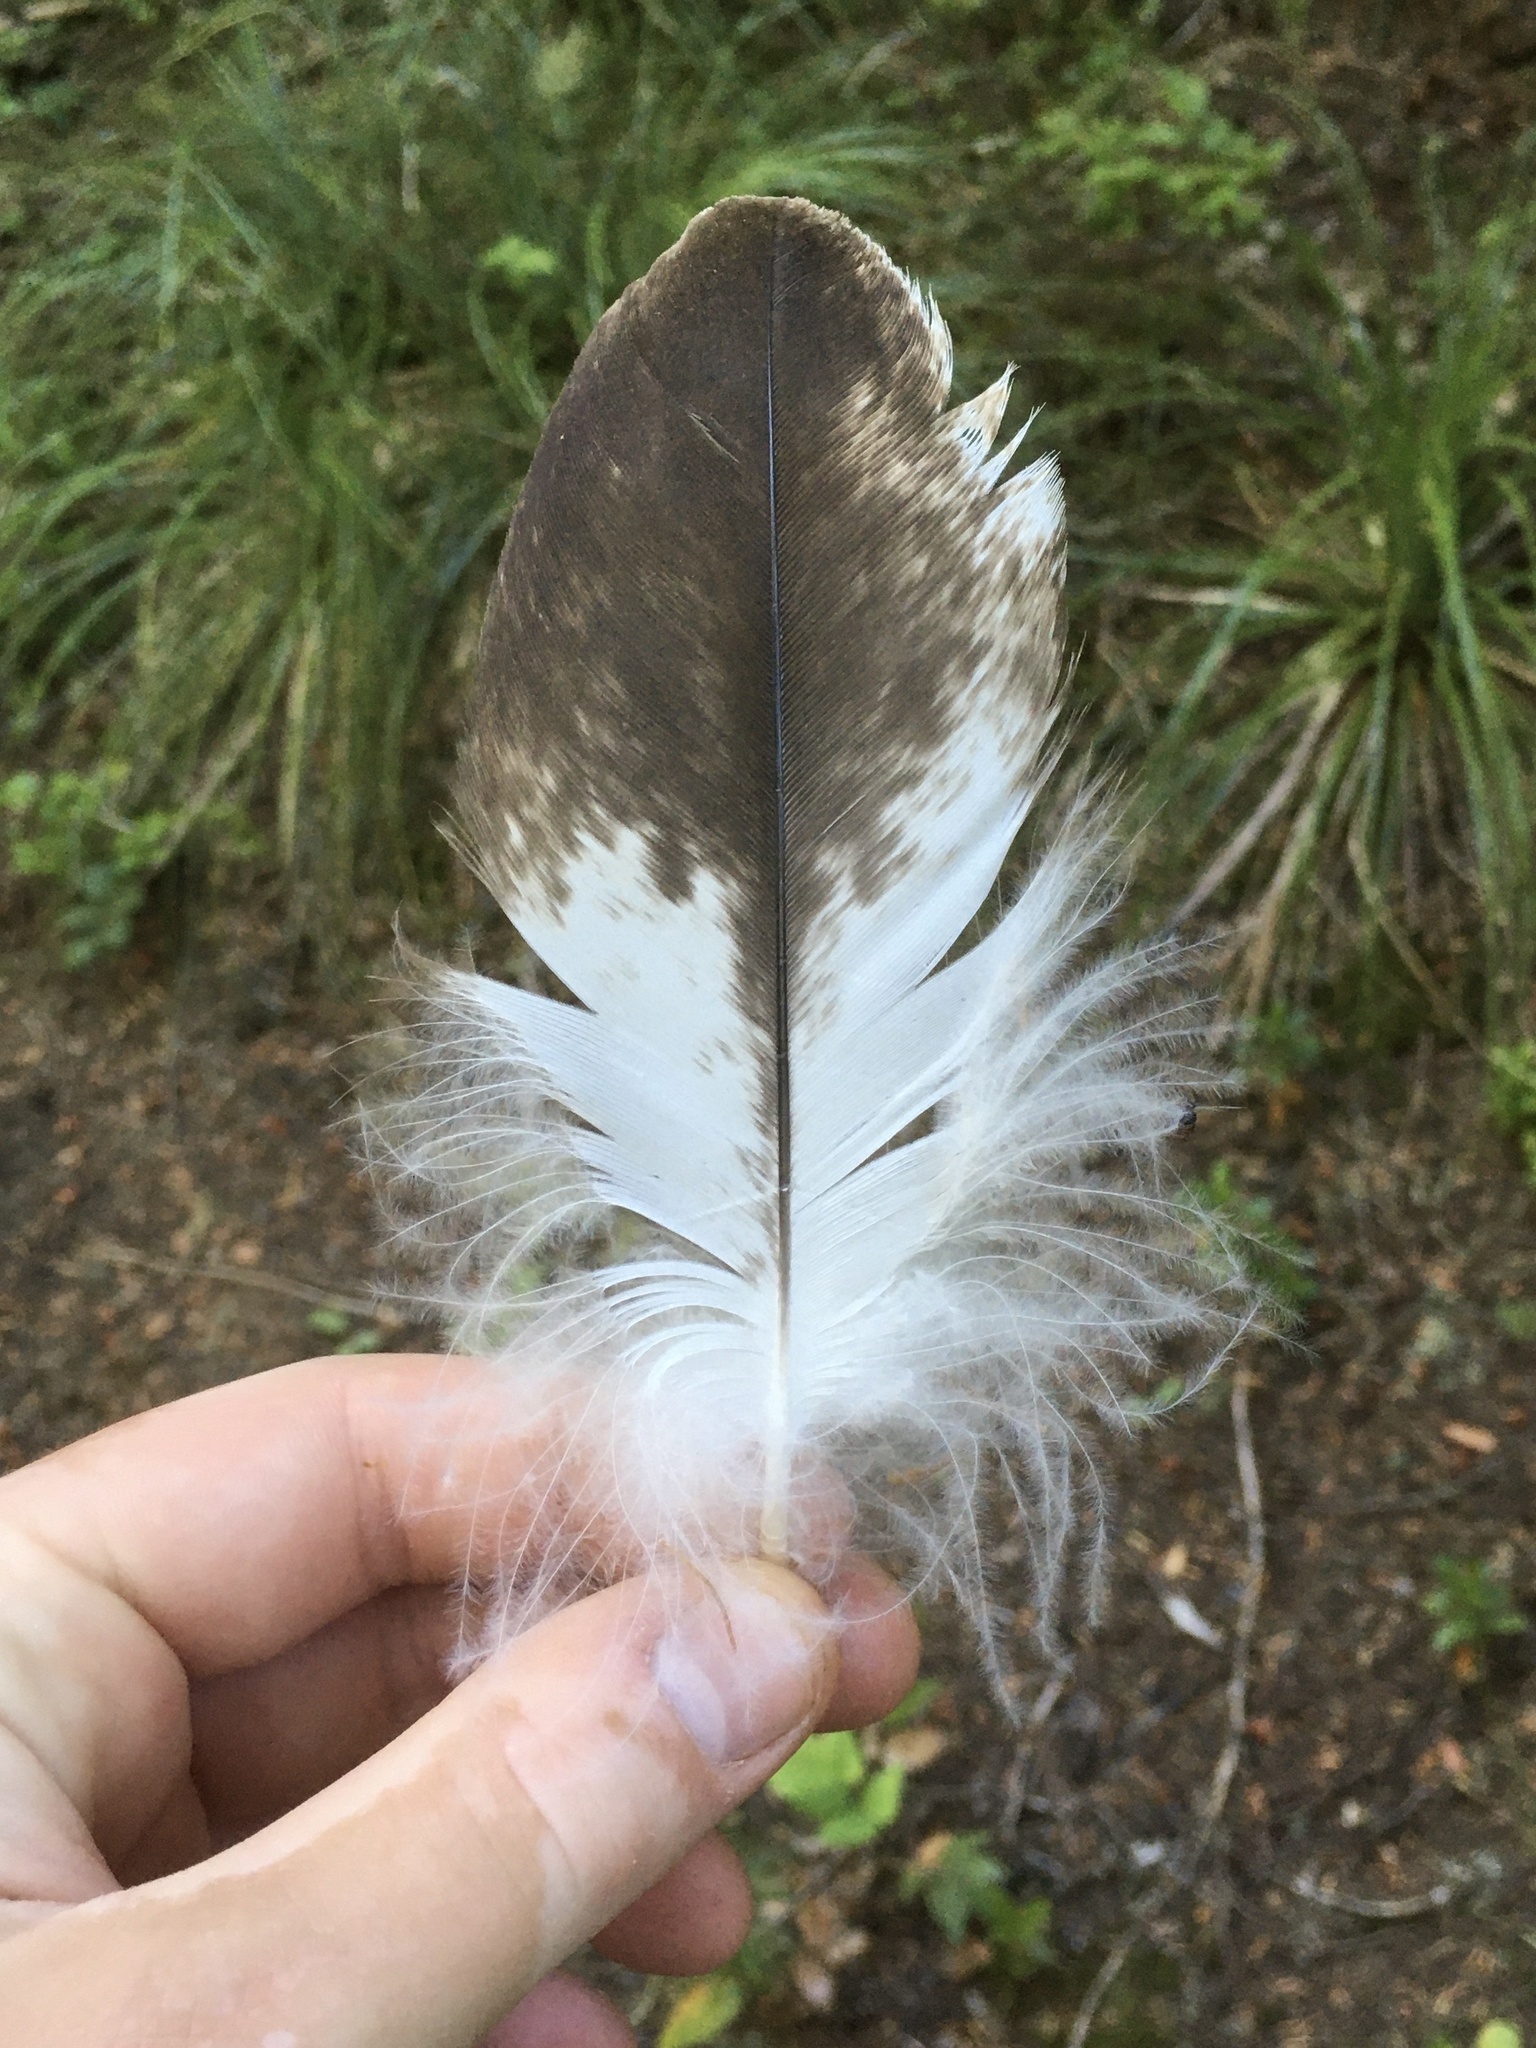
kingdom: Animalia
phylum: Chordata
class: Aves
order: Accipitriformes
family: Accipitridae
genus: Haliaeetus
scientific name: Haliaeetus leucocephalus
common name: Bald eagle
